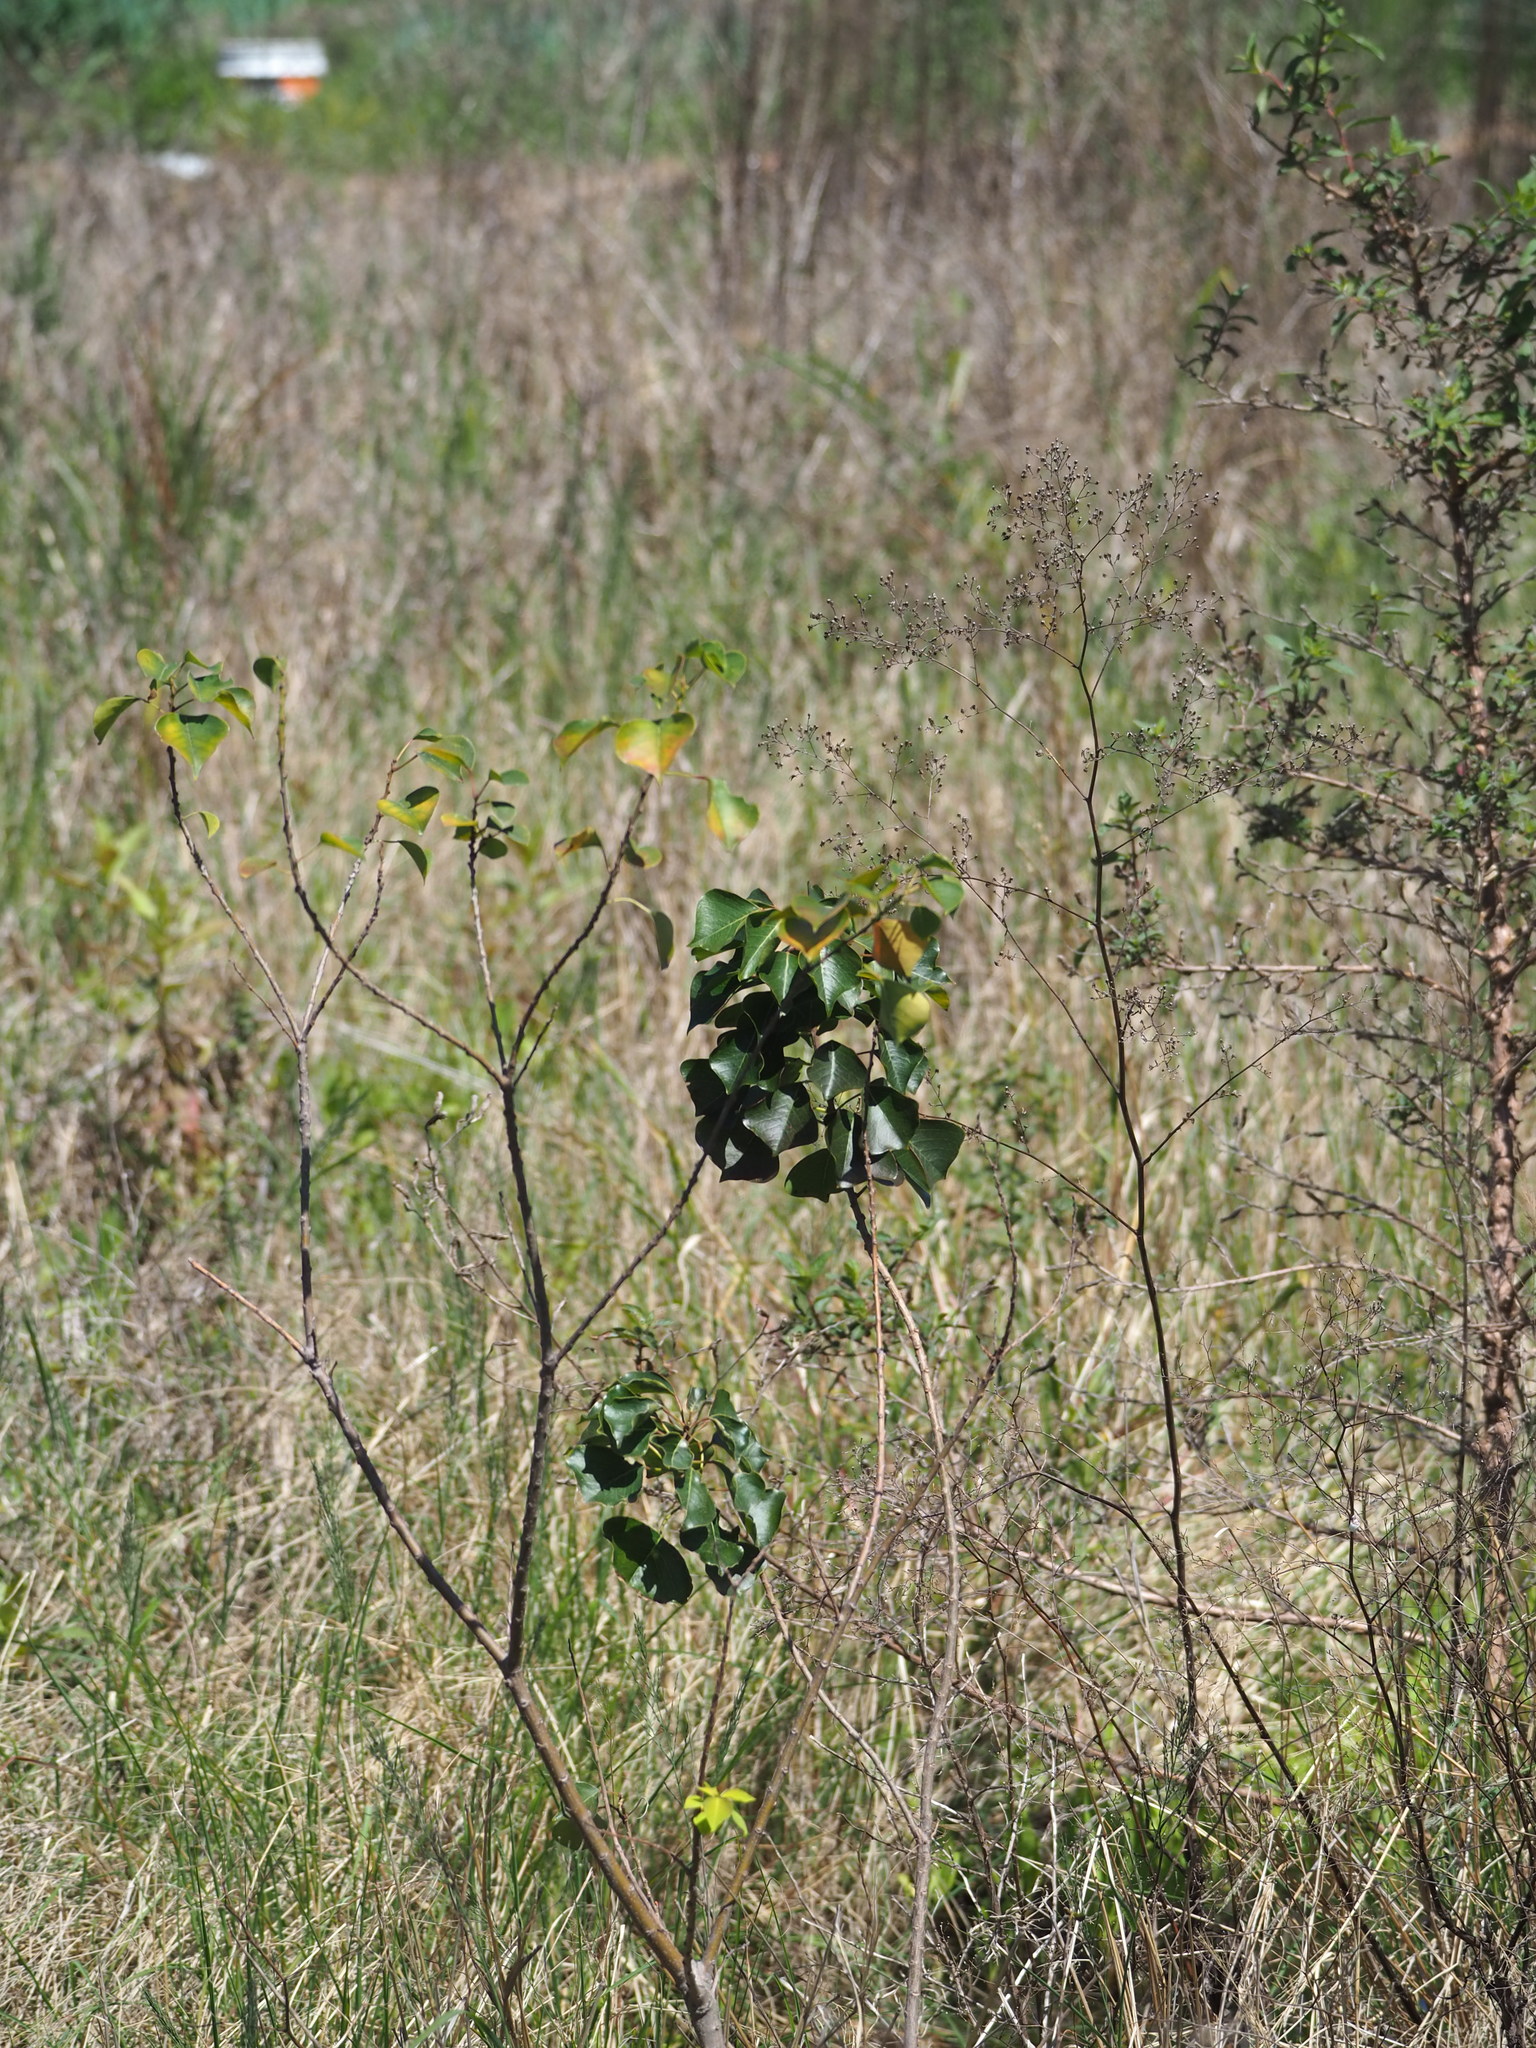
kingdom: Plantae
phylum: Tracheophyta
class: Magnoliopsida
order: Malpighiales
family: Euphorbiaceae
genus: Triadica
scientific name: Triadica sebifera
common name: Chinese tallow
